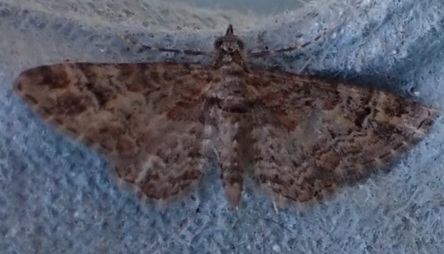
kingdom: Animalia
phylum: Arthropoda
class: Insecta
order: Lepidoptera
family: Geometridae
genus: Gymnoscelis
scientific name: Gymnoscelis rufifasciata
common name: Double-striped pug
